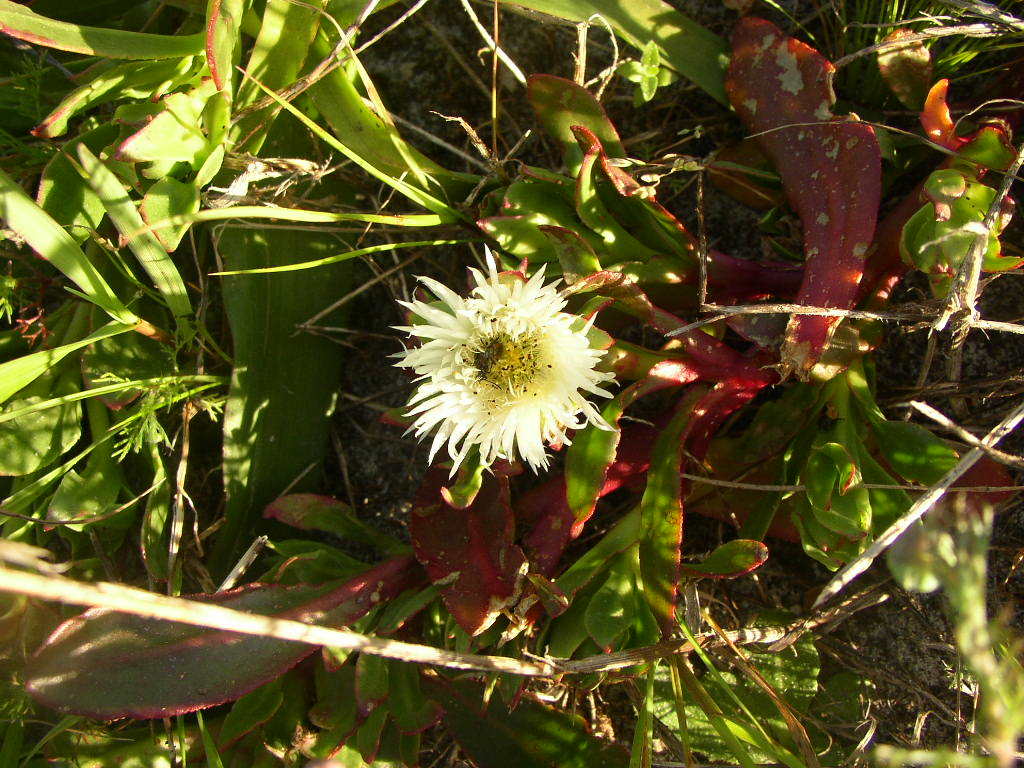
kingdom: Plantae
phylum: Tracheophyta
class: Magnoliopsida
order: Caryophyllales
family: Aizoaceae
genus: Skiatophytum
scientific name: Skiatophytum tripolium
